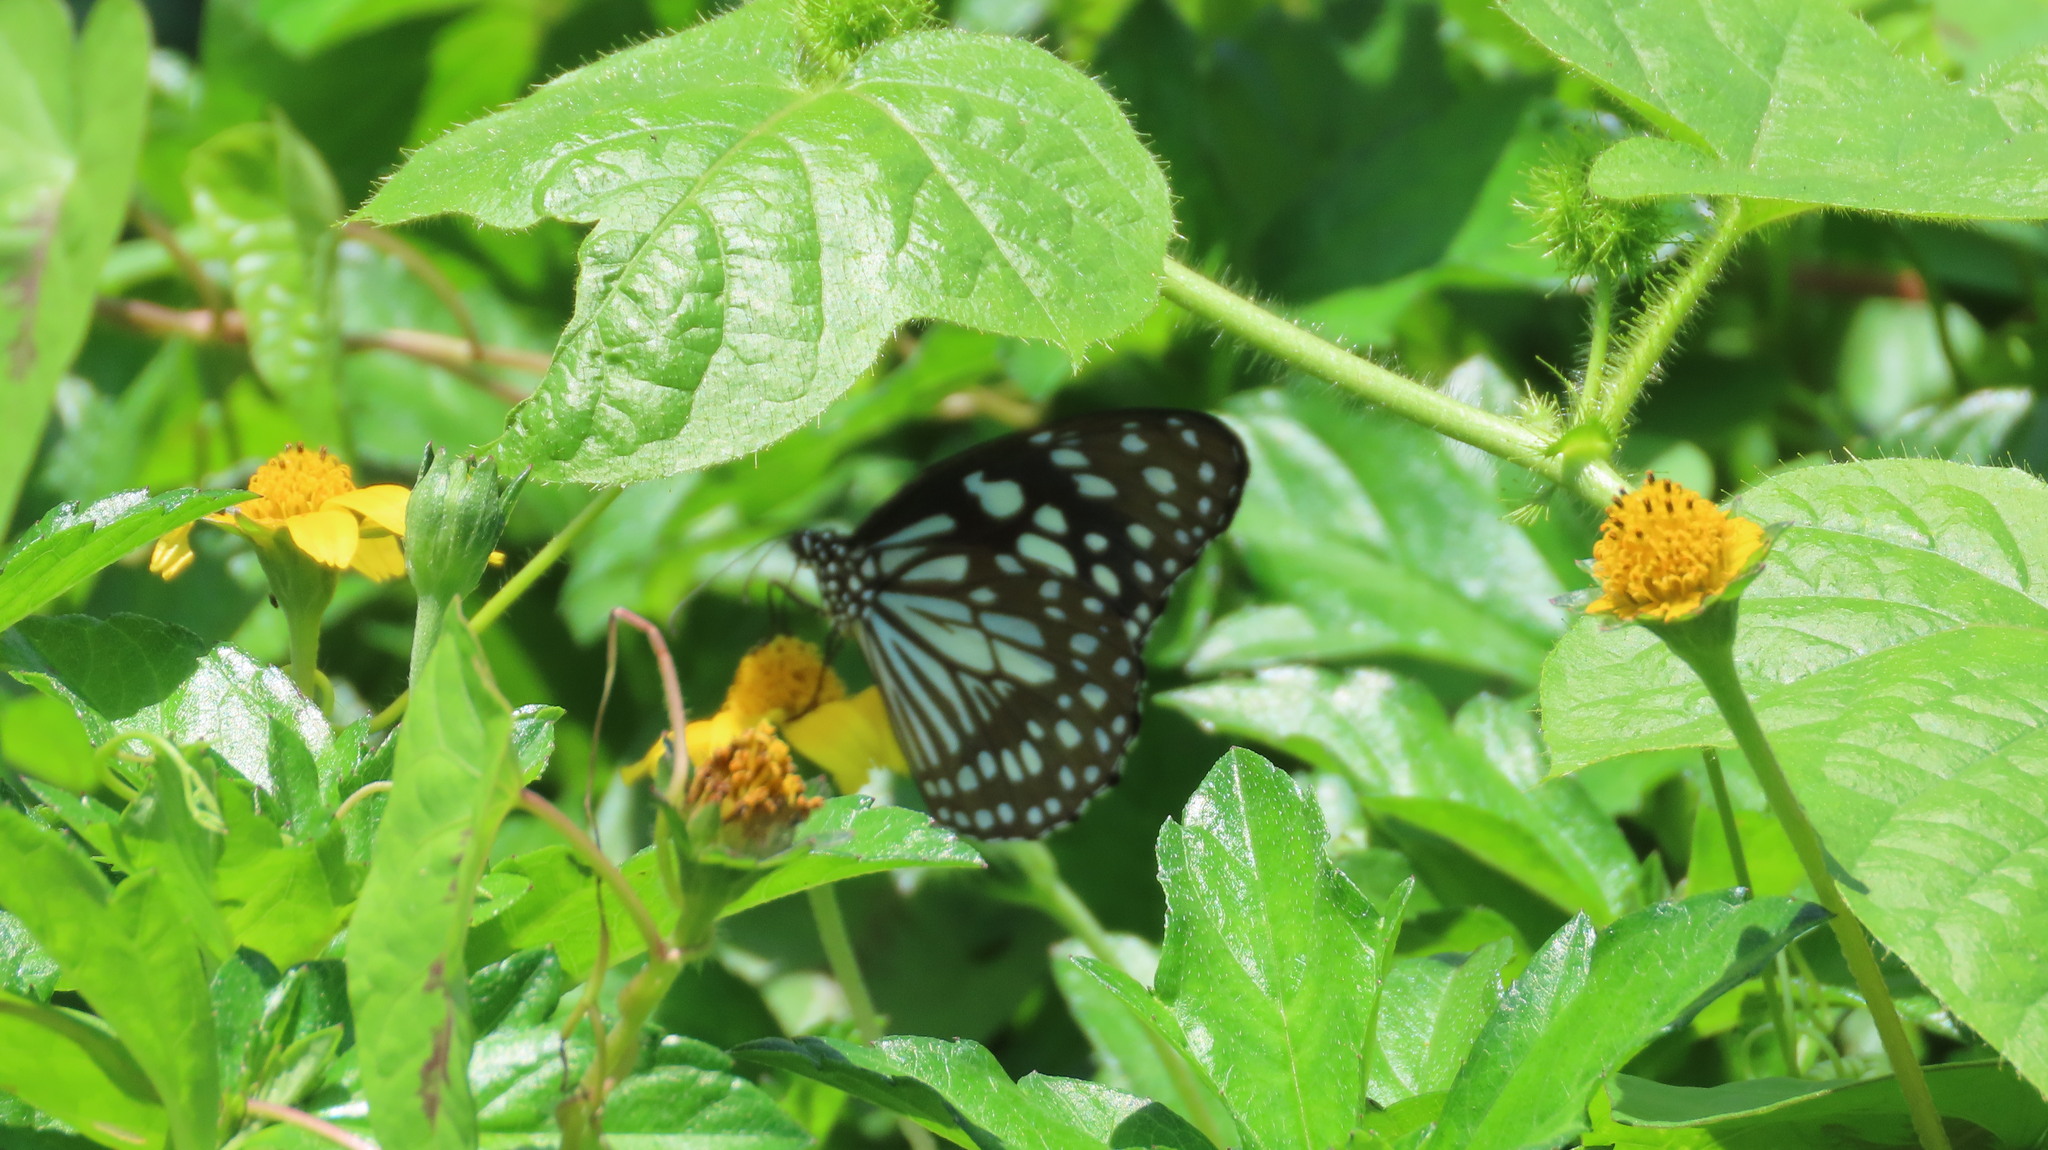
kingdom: Animalia
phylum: Arthropoda
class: Insecta
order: Lepidoptera
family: Nymphalidae
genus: Tirumala
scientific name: Tirumala limniace
